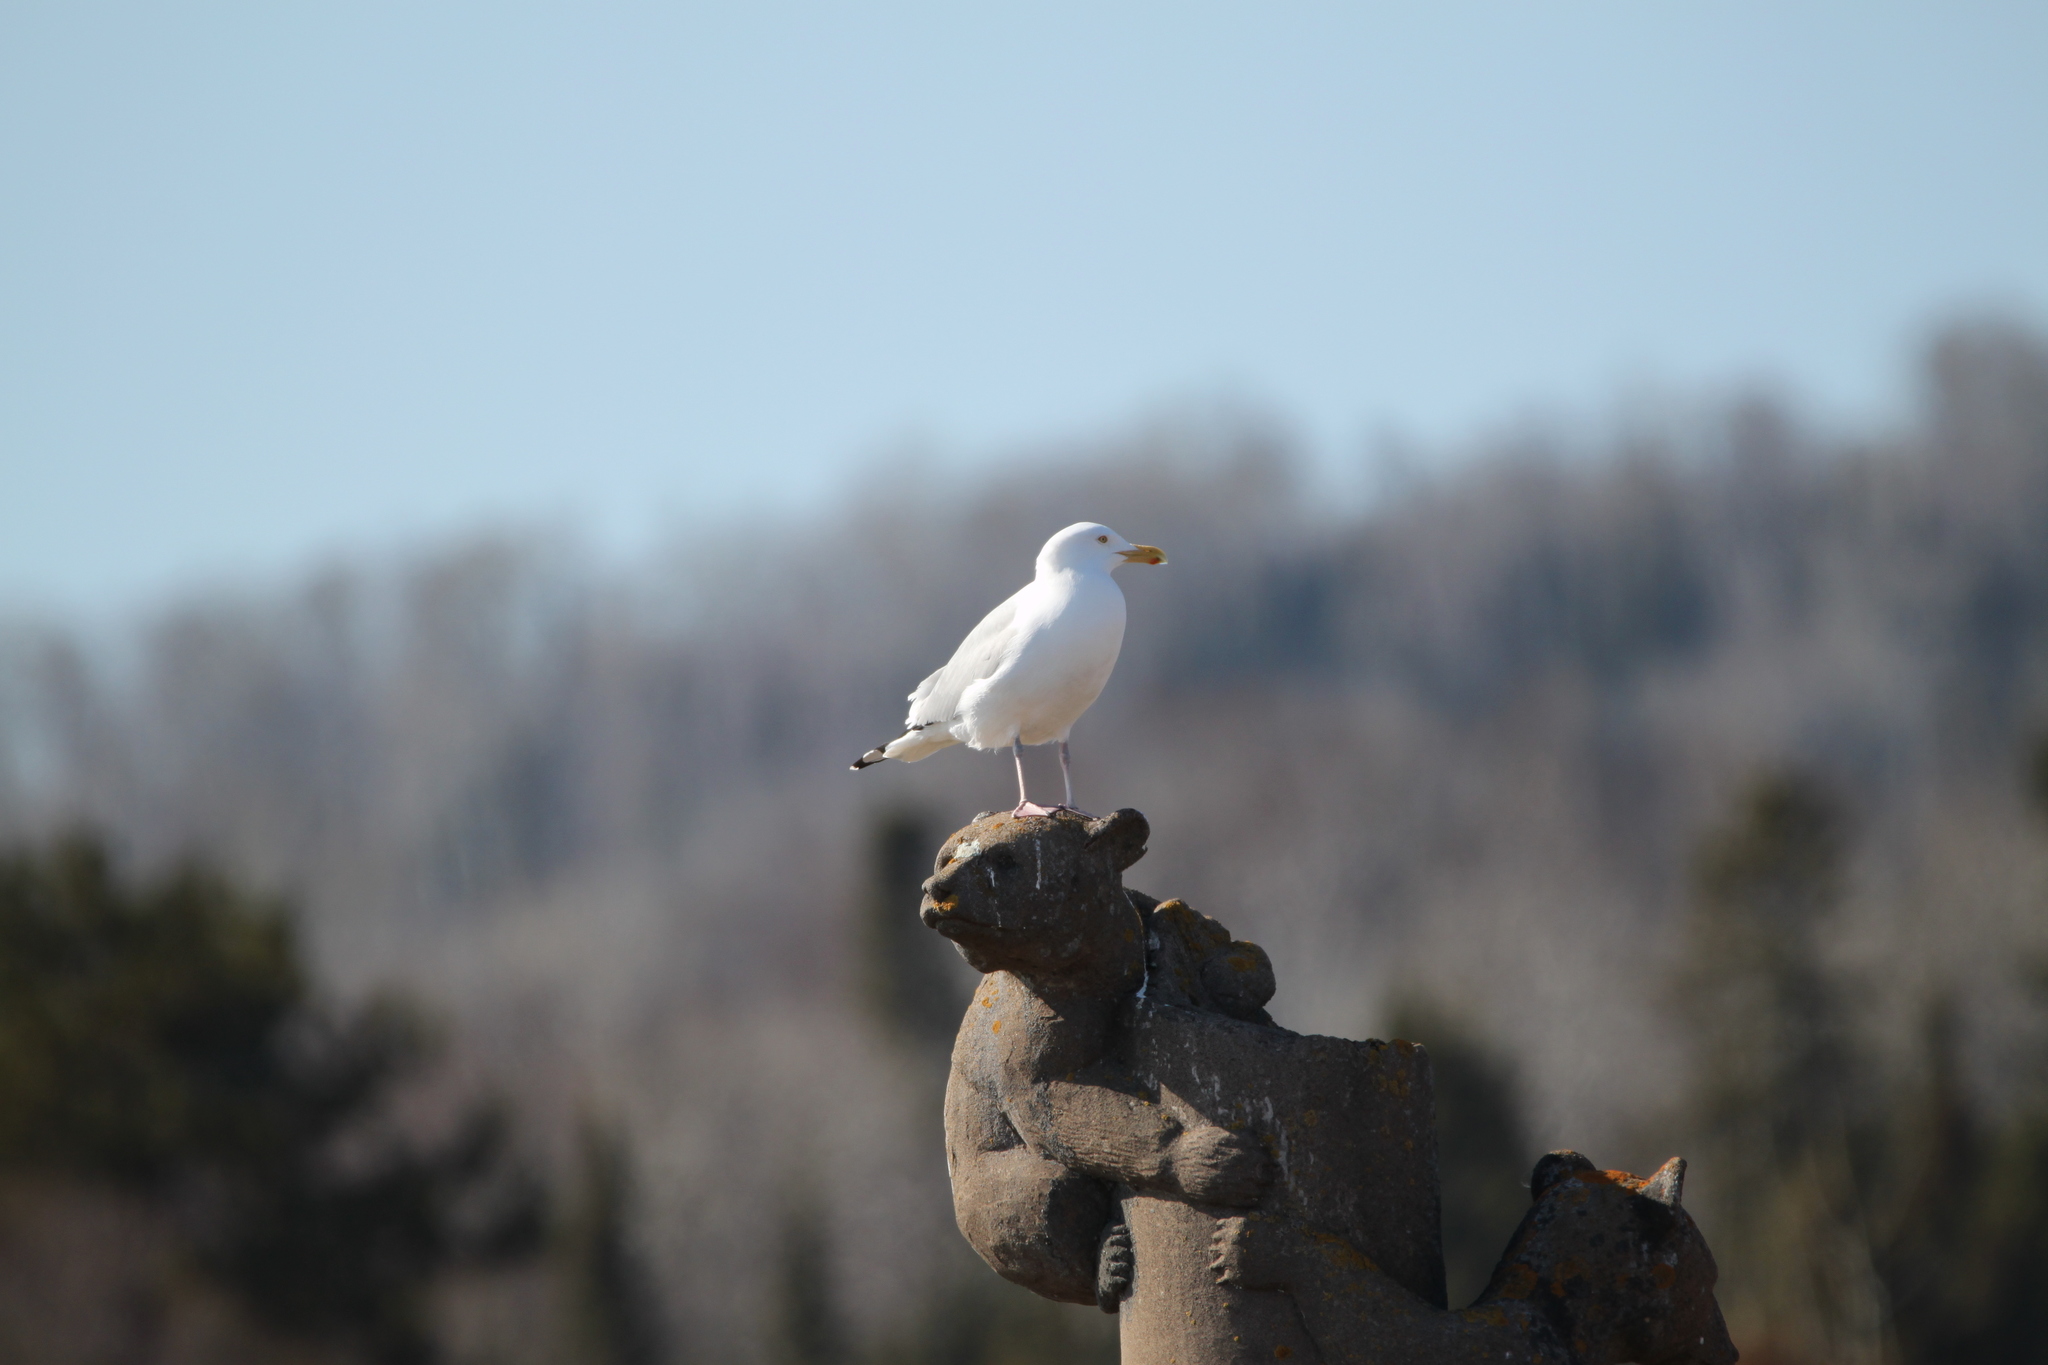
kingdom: Animalia
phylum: Chordata
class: Aves
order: Charadriiformes
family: Laridae
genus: Larus
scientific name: Larus argentatus
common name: Herring gull
